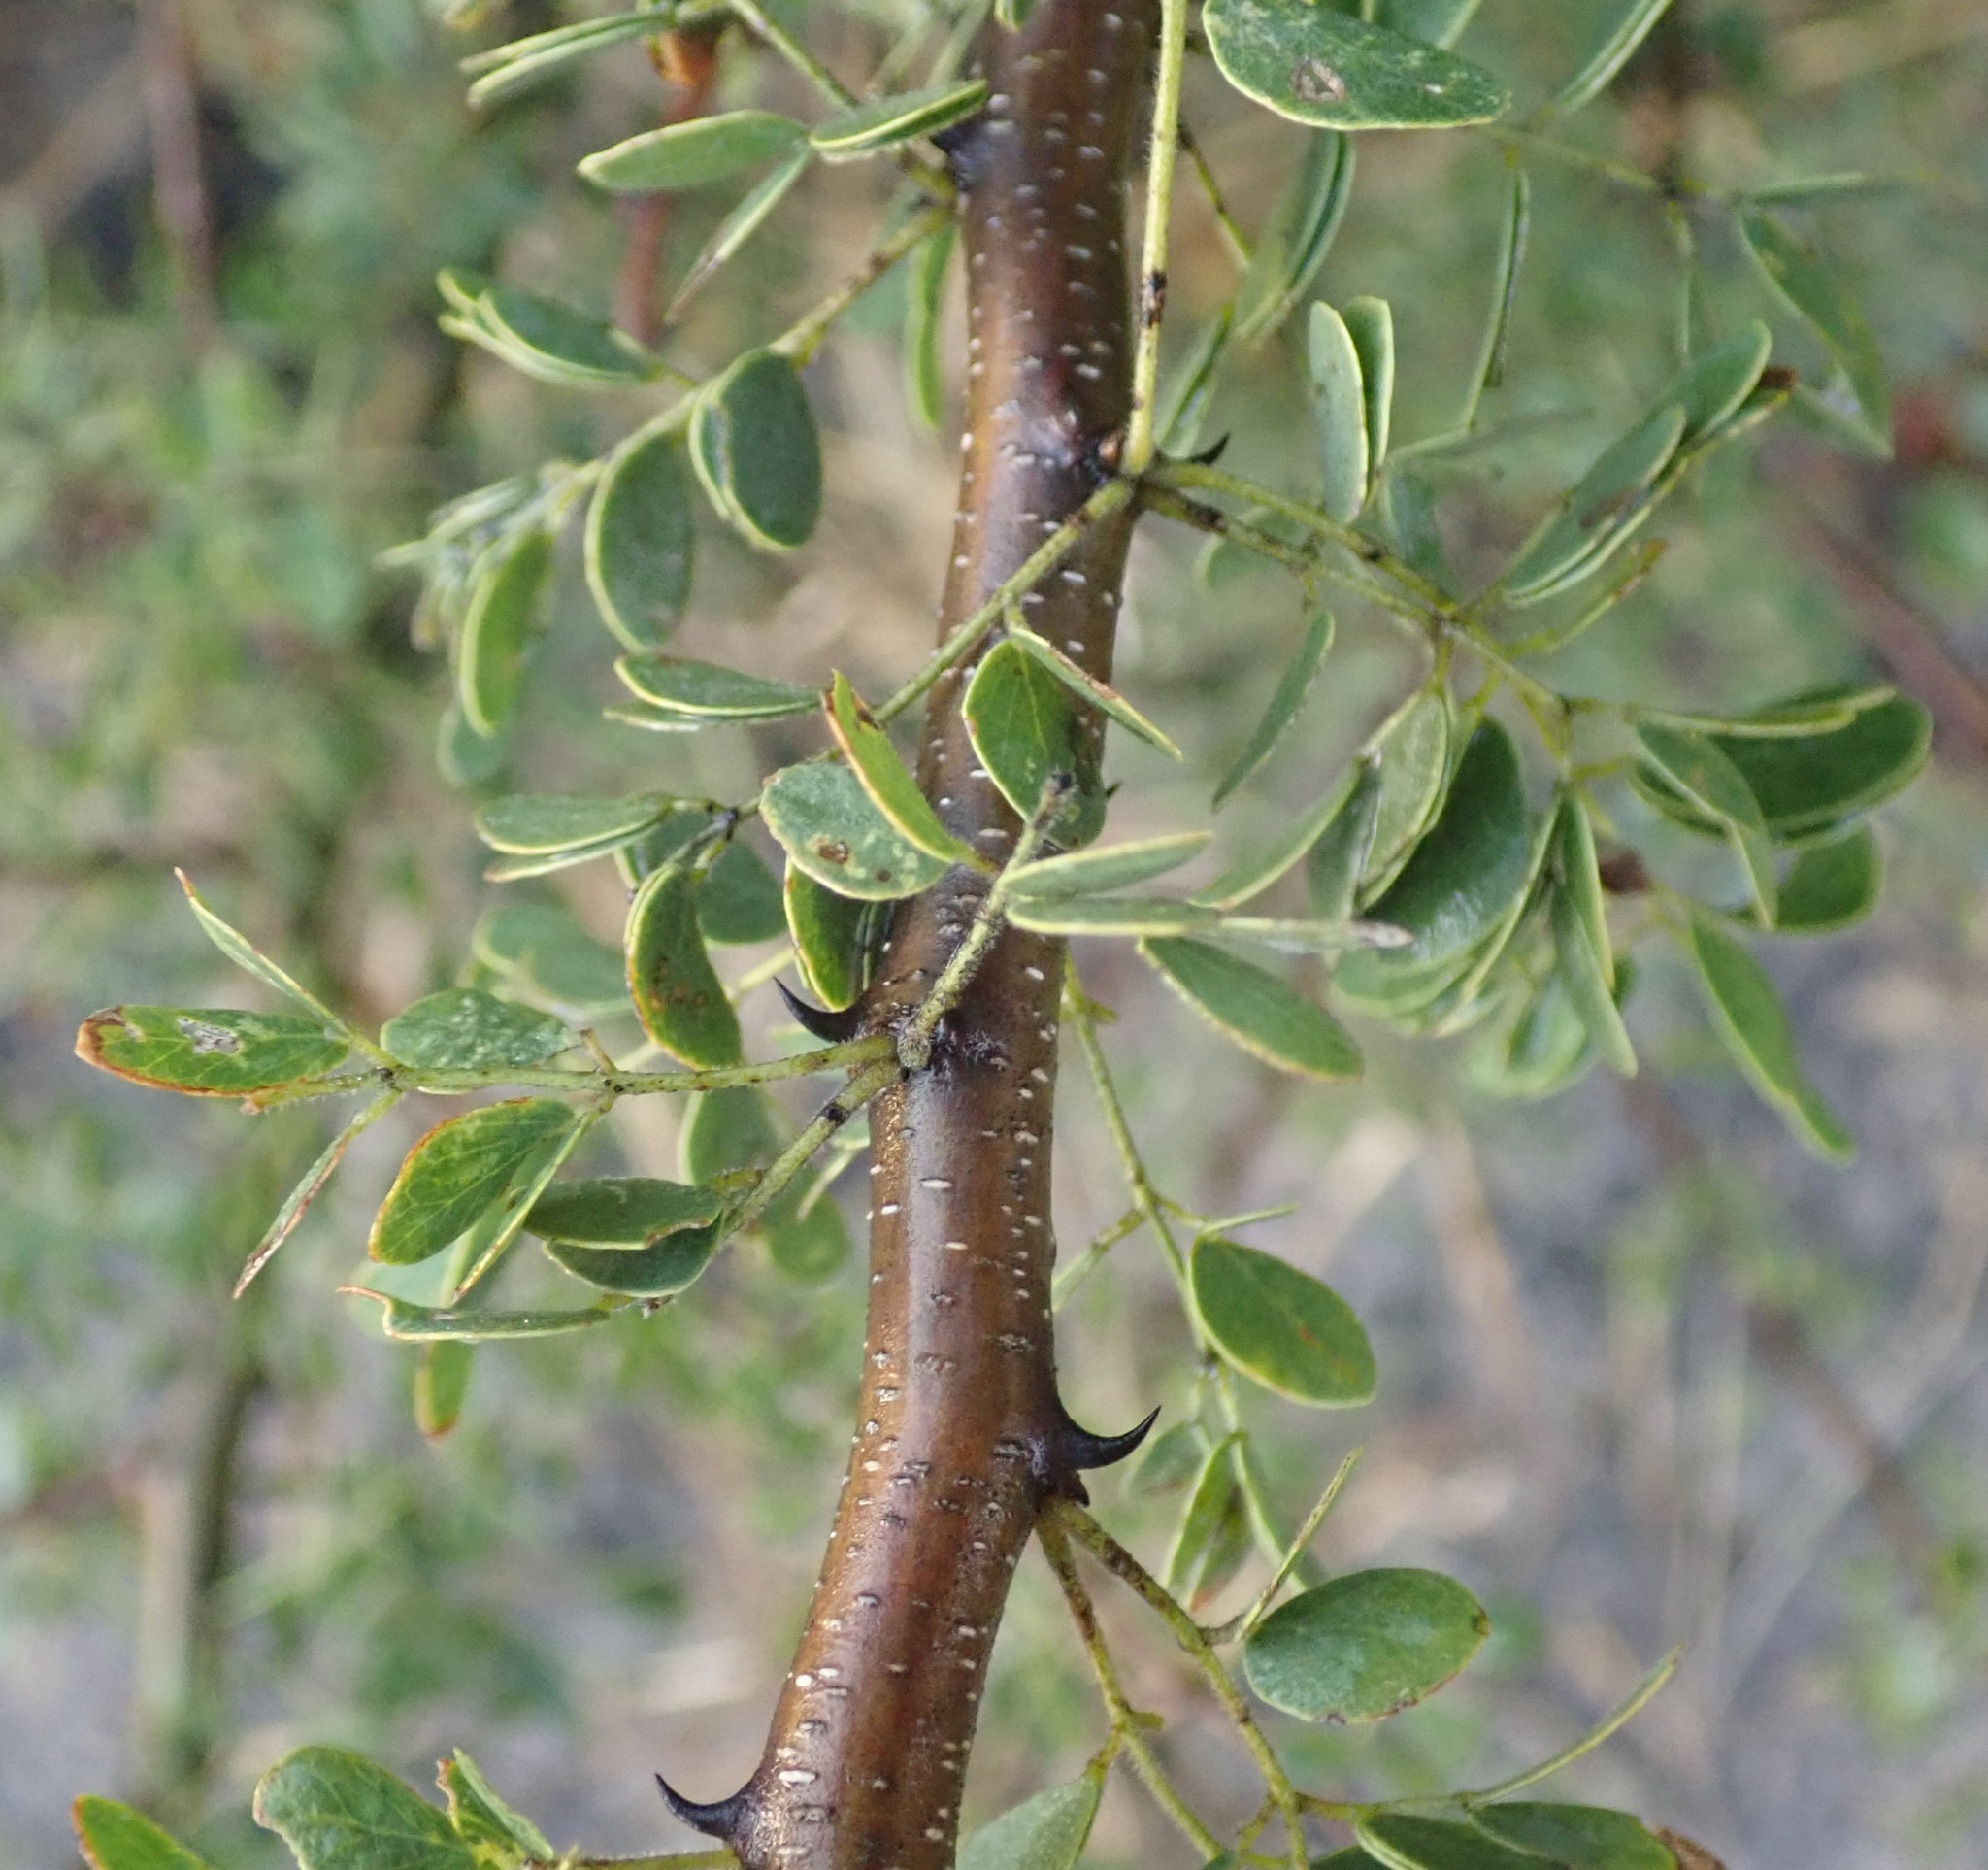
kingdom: Plantae
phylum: Tracheophyta
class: Magnoliopsida
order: Fabales
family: Fabaceae
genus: Senegalia
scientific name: Senegalia mellifera
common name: Hookthorn
